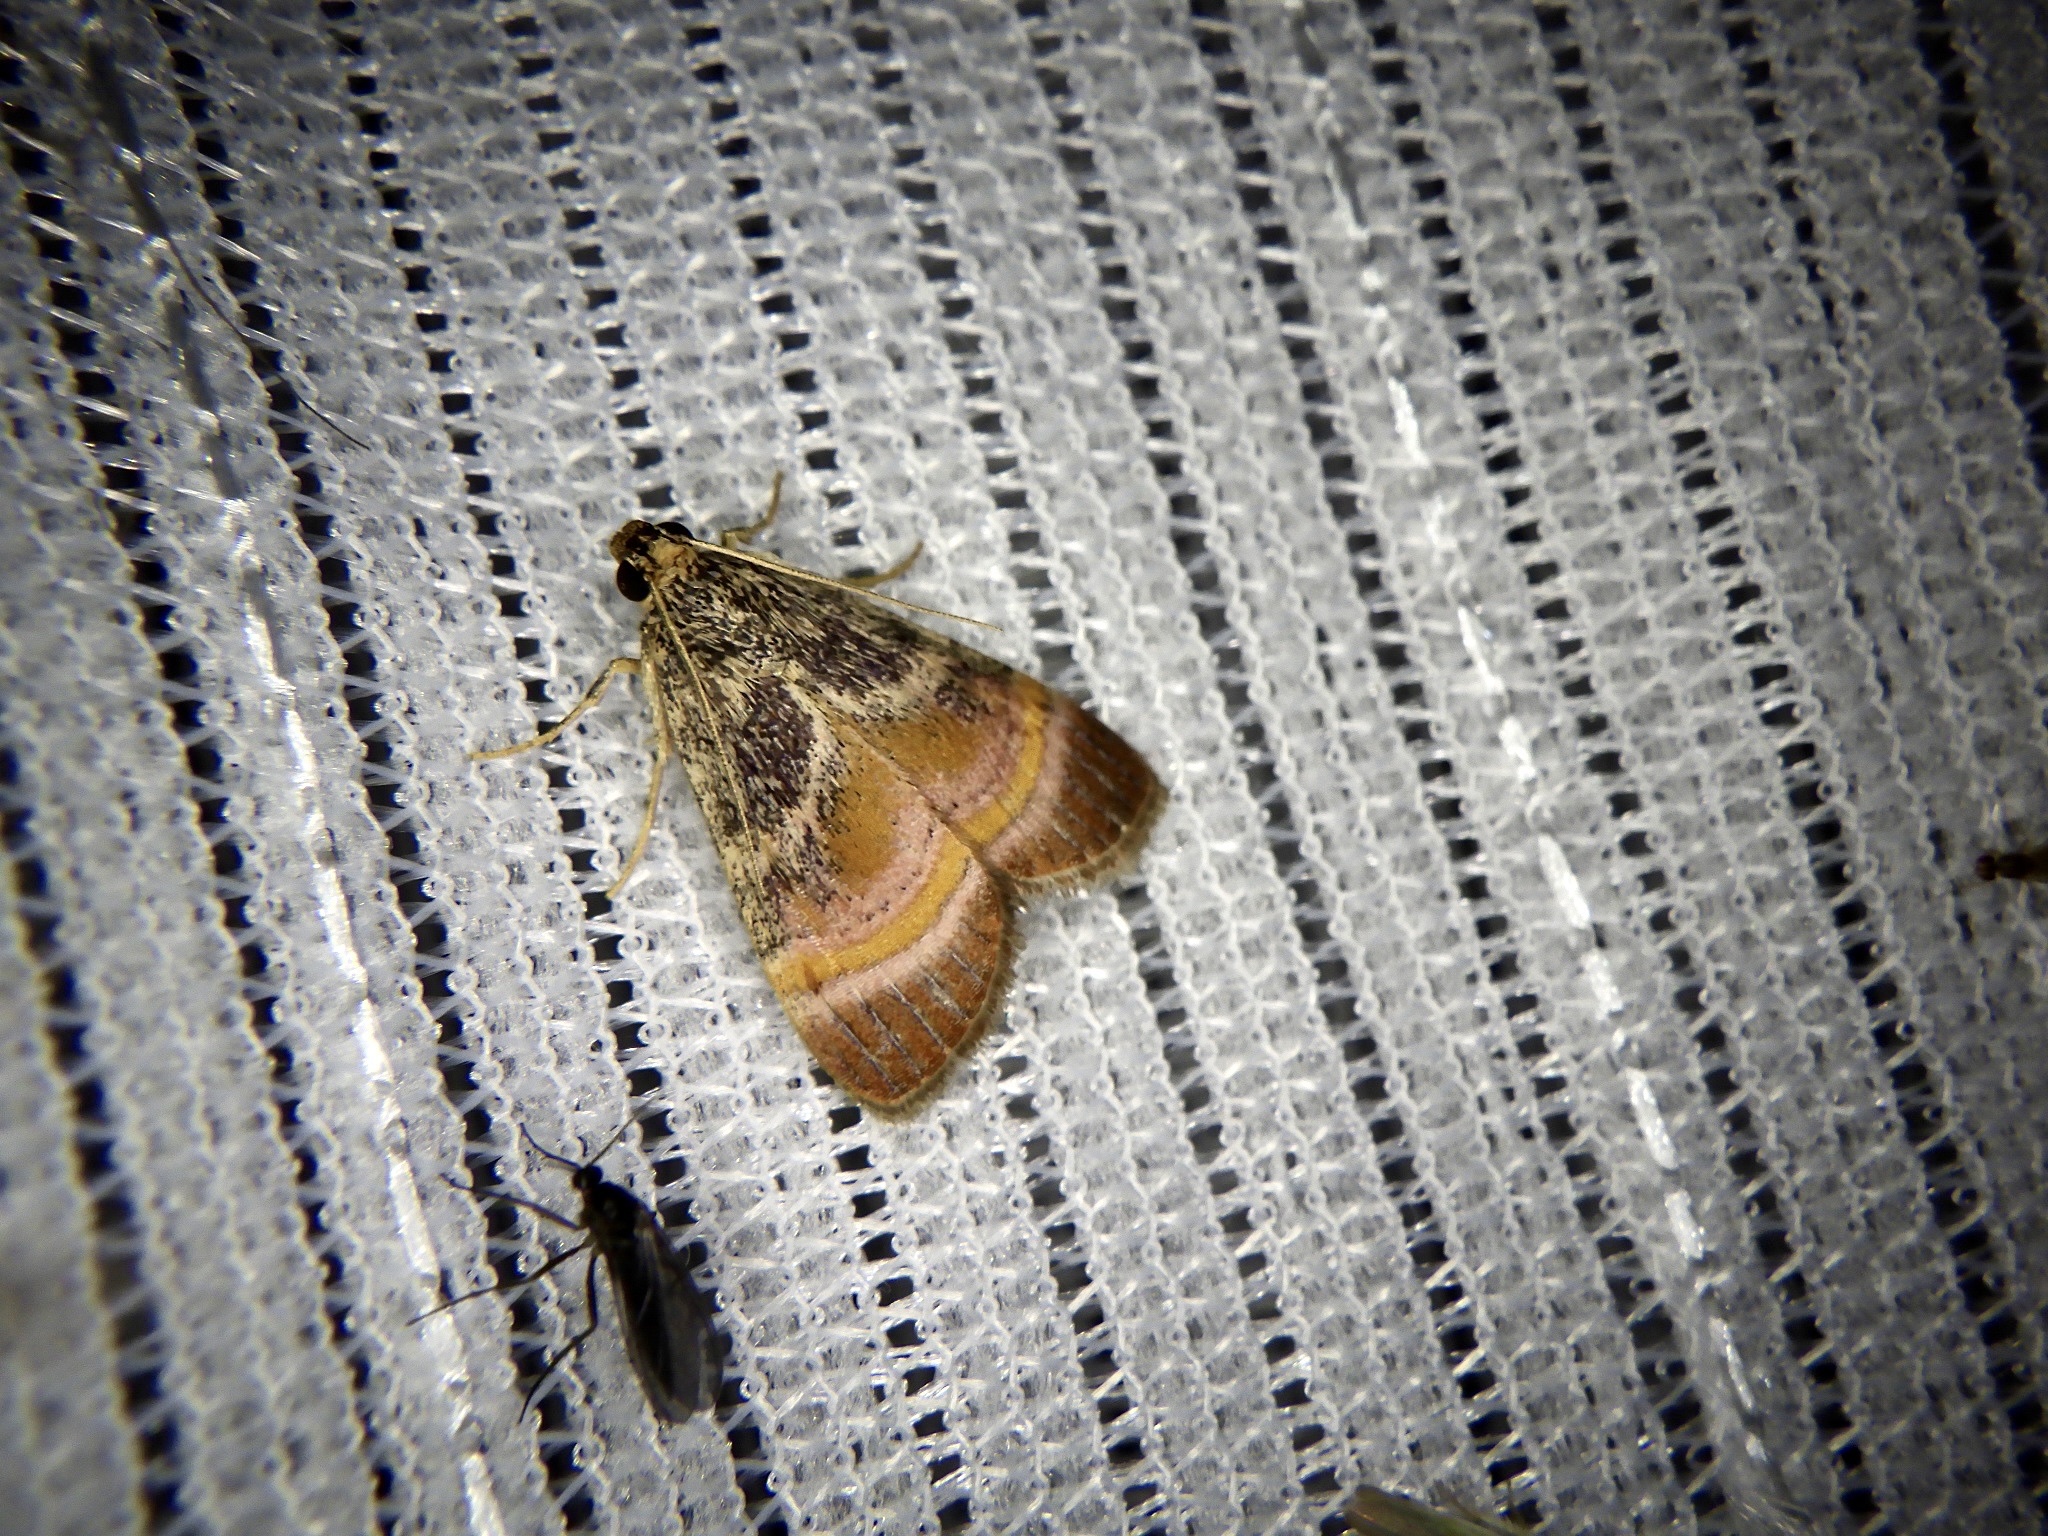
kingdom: Animalia
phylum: Arthropoda
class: Insecta
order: Lepidoptera
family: Pyralidae
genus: Lista
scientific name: Lista ficki
